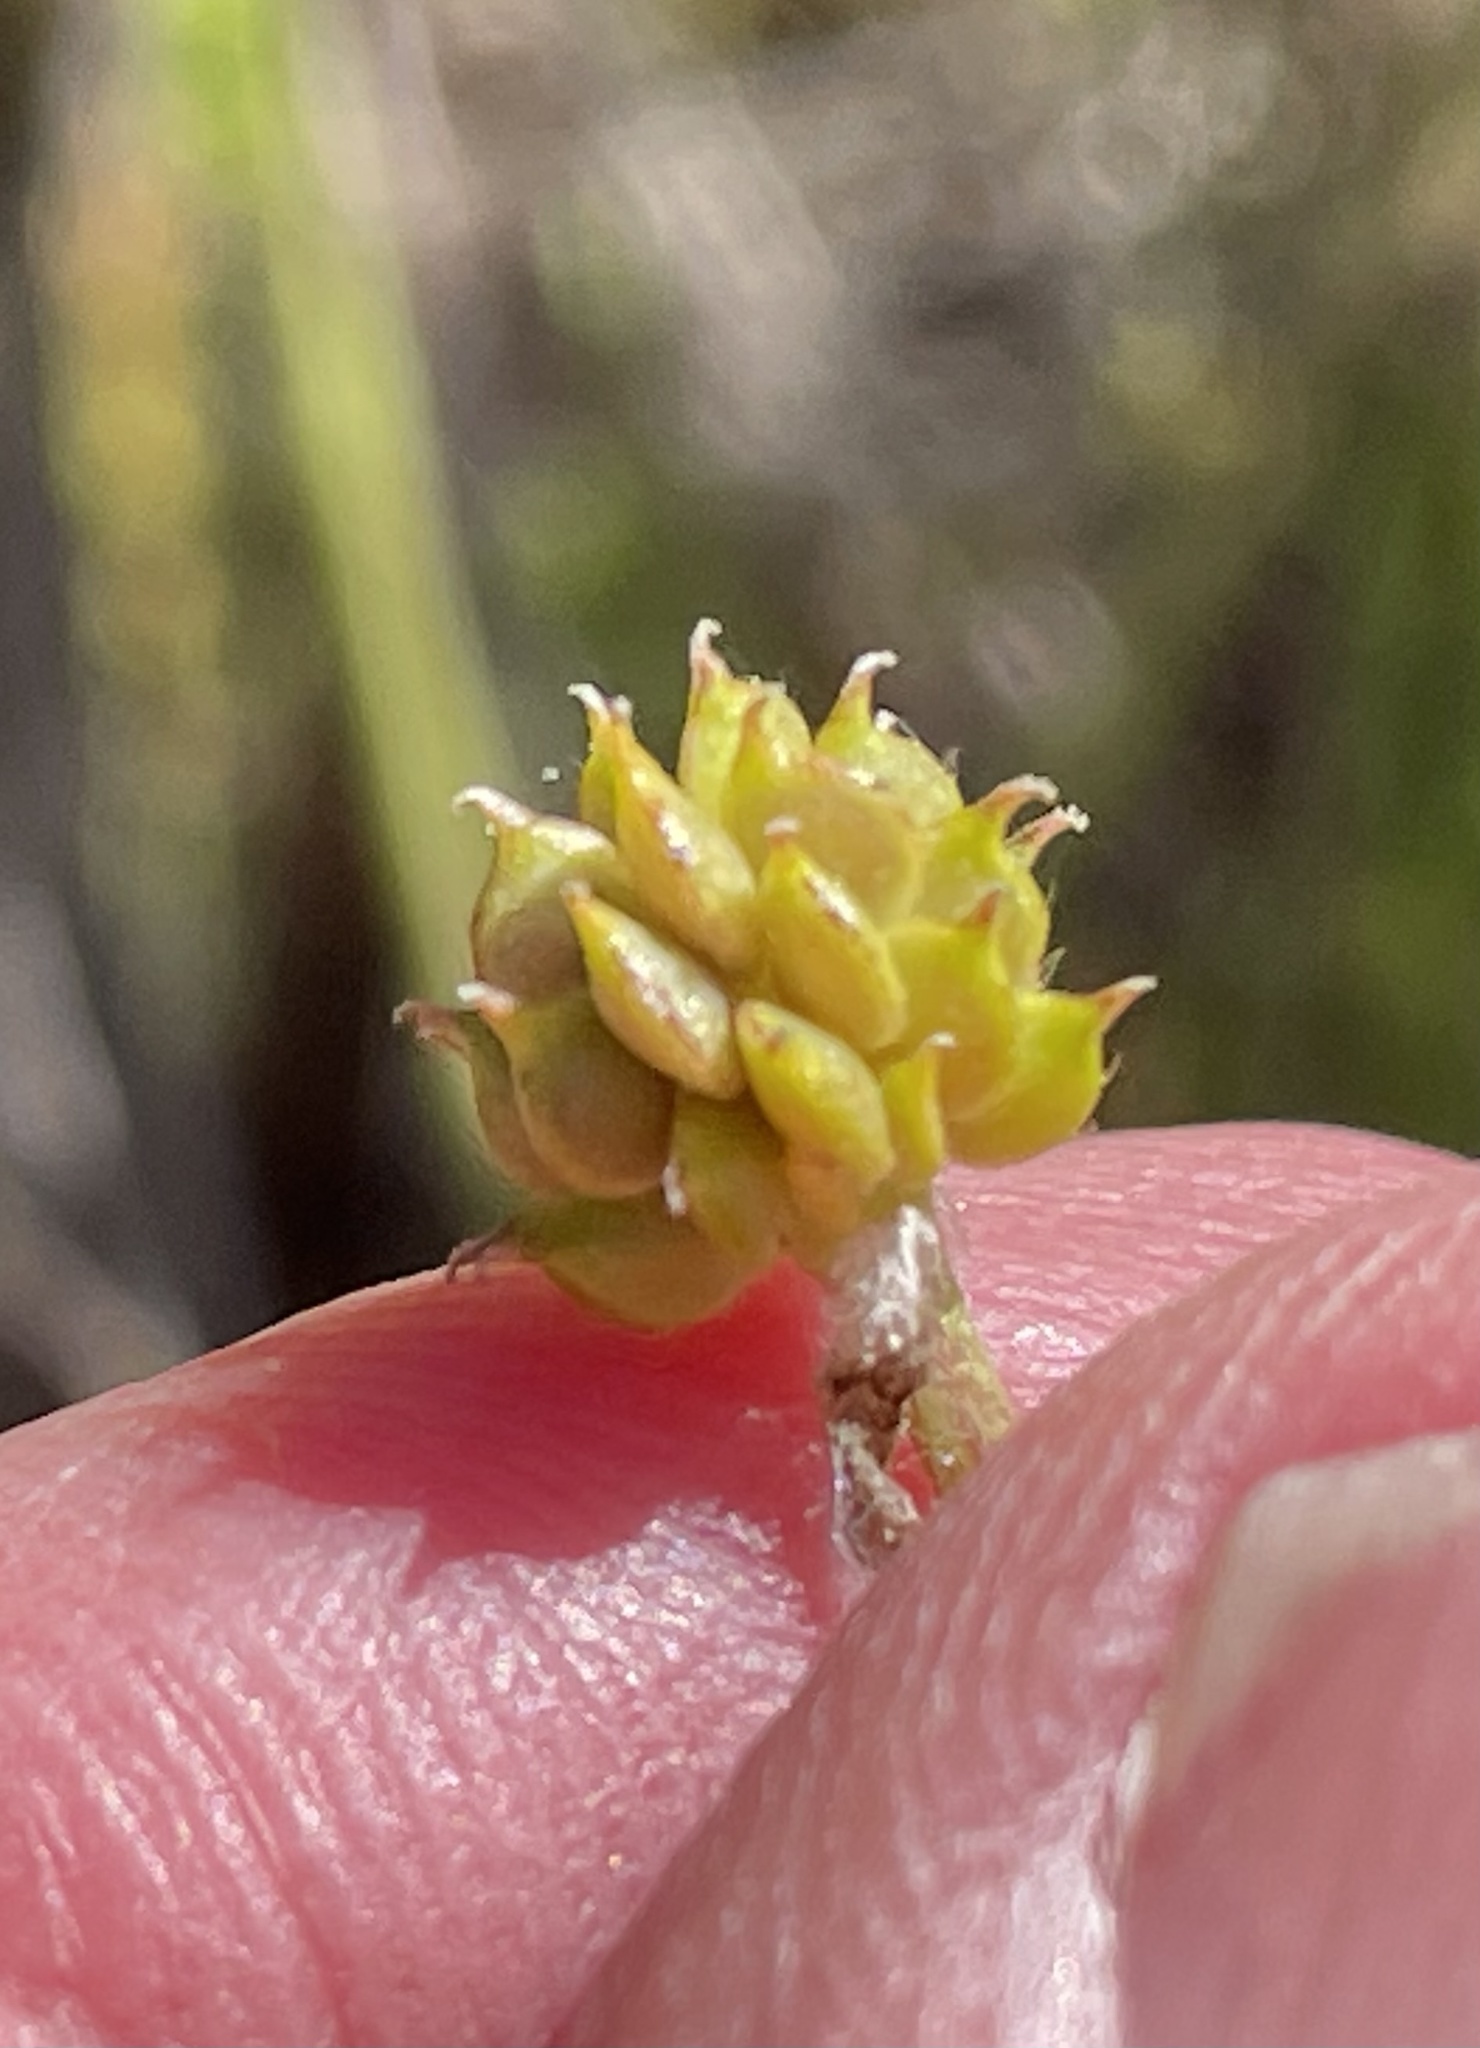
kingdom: Plantae
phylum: Tracheophyta
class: Magnoliopsida
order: Ranunculales
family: Ranunculaceae
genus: Ranunculus
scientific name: Ranunculus californicus
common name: California buttercup
